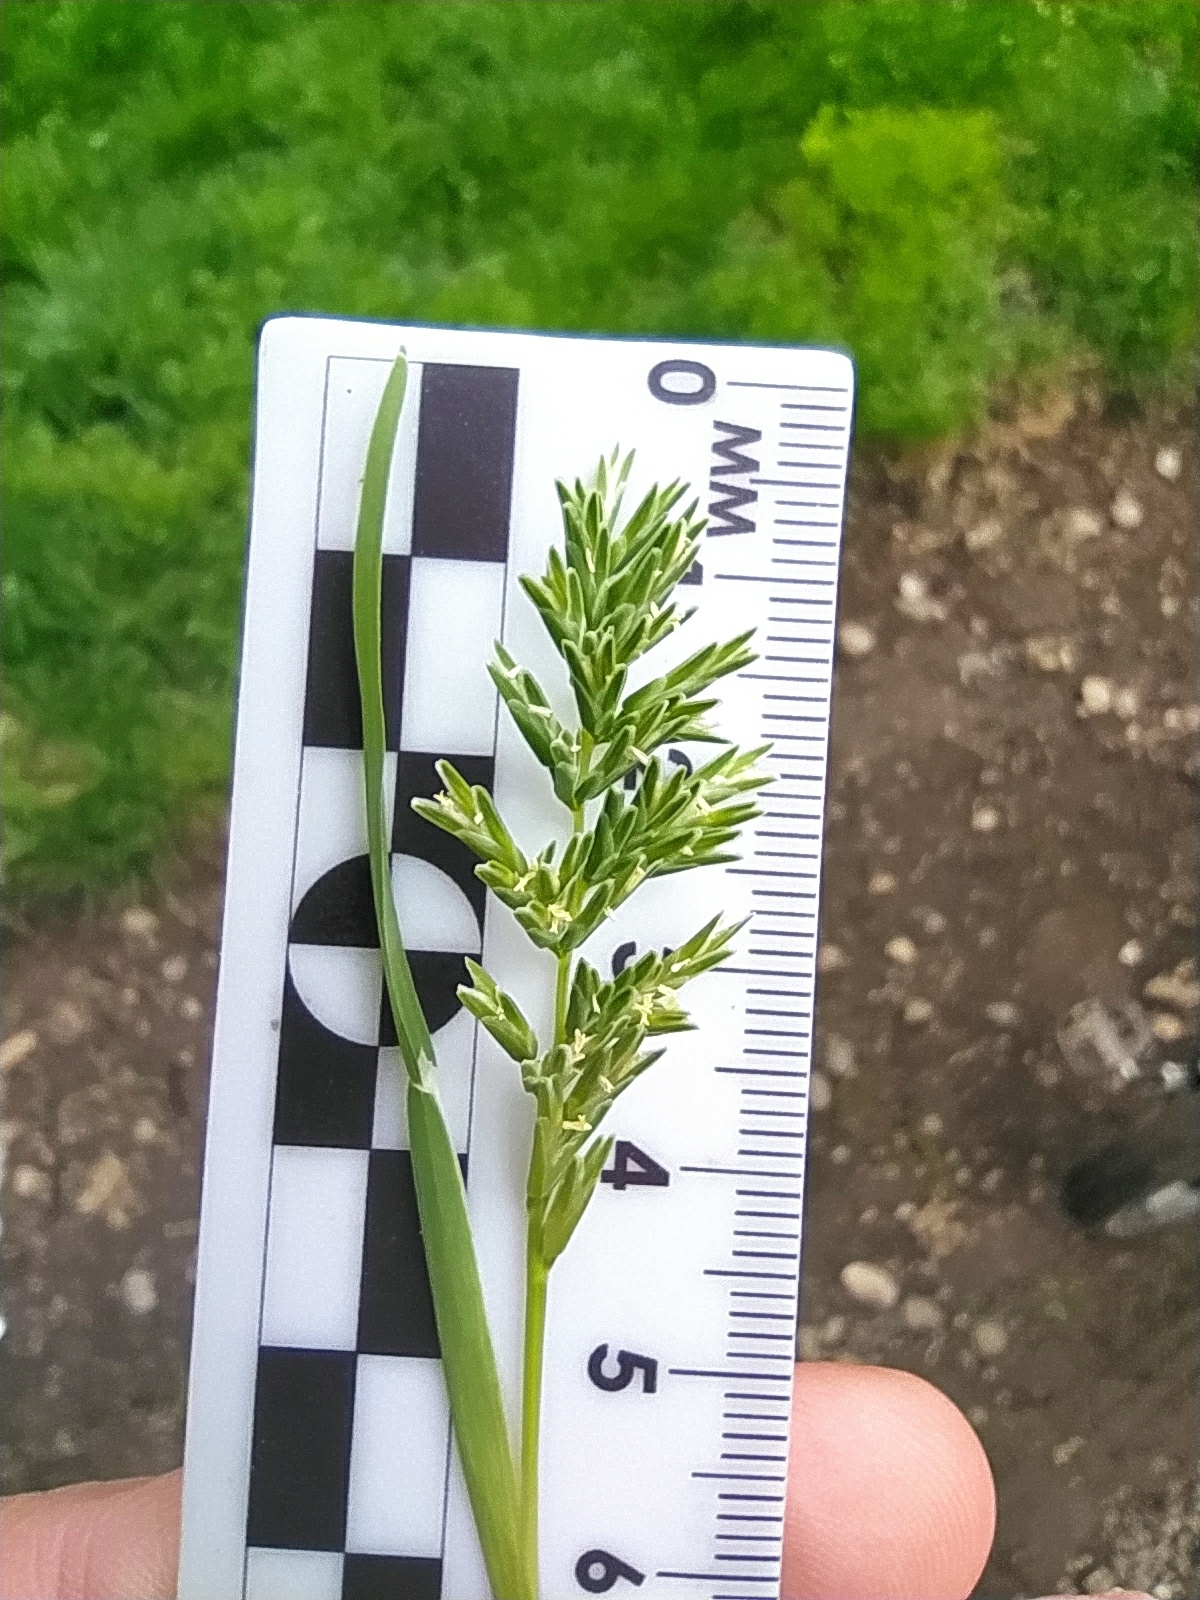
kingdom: Plantae
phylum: Tracheophyta
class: Liliopsida
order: Poales
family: Poaceae
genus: Sclerochloa
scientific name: Sclerochloa dura
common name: Common hardgrass
